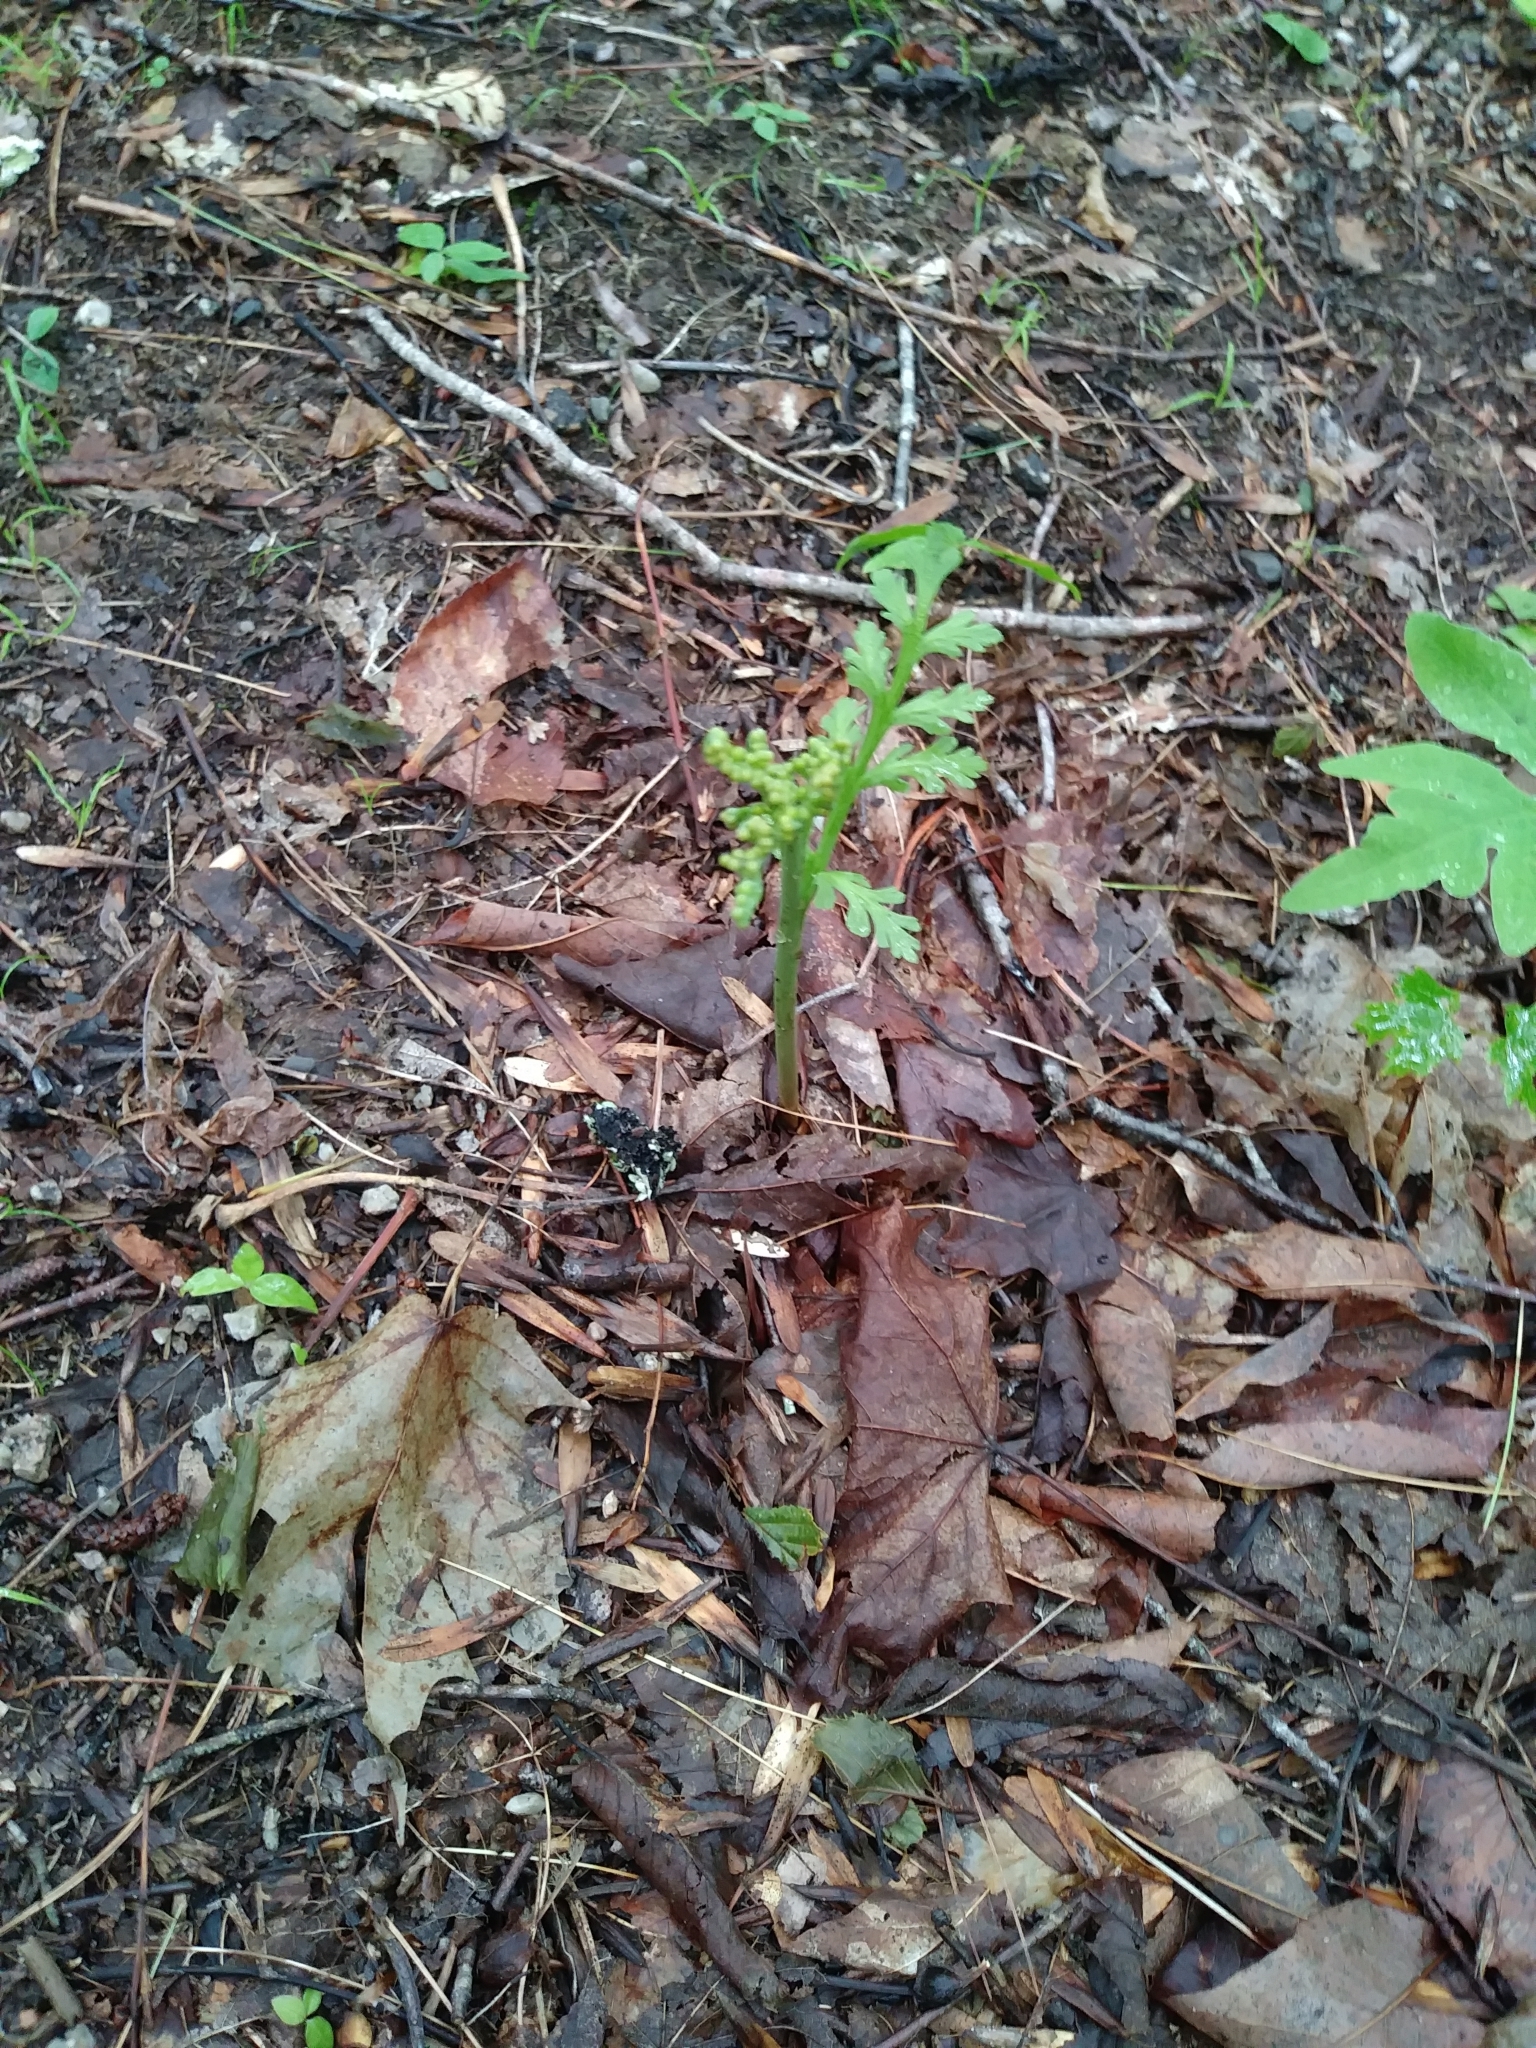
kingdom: Plantae
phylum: Tracheophyta
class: Polypodiopsida
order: Ophioglossales
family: Ophioglossaceae
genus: Botrychium
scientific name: Botrychium matricariifolium
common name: Branched moonwort
